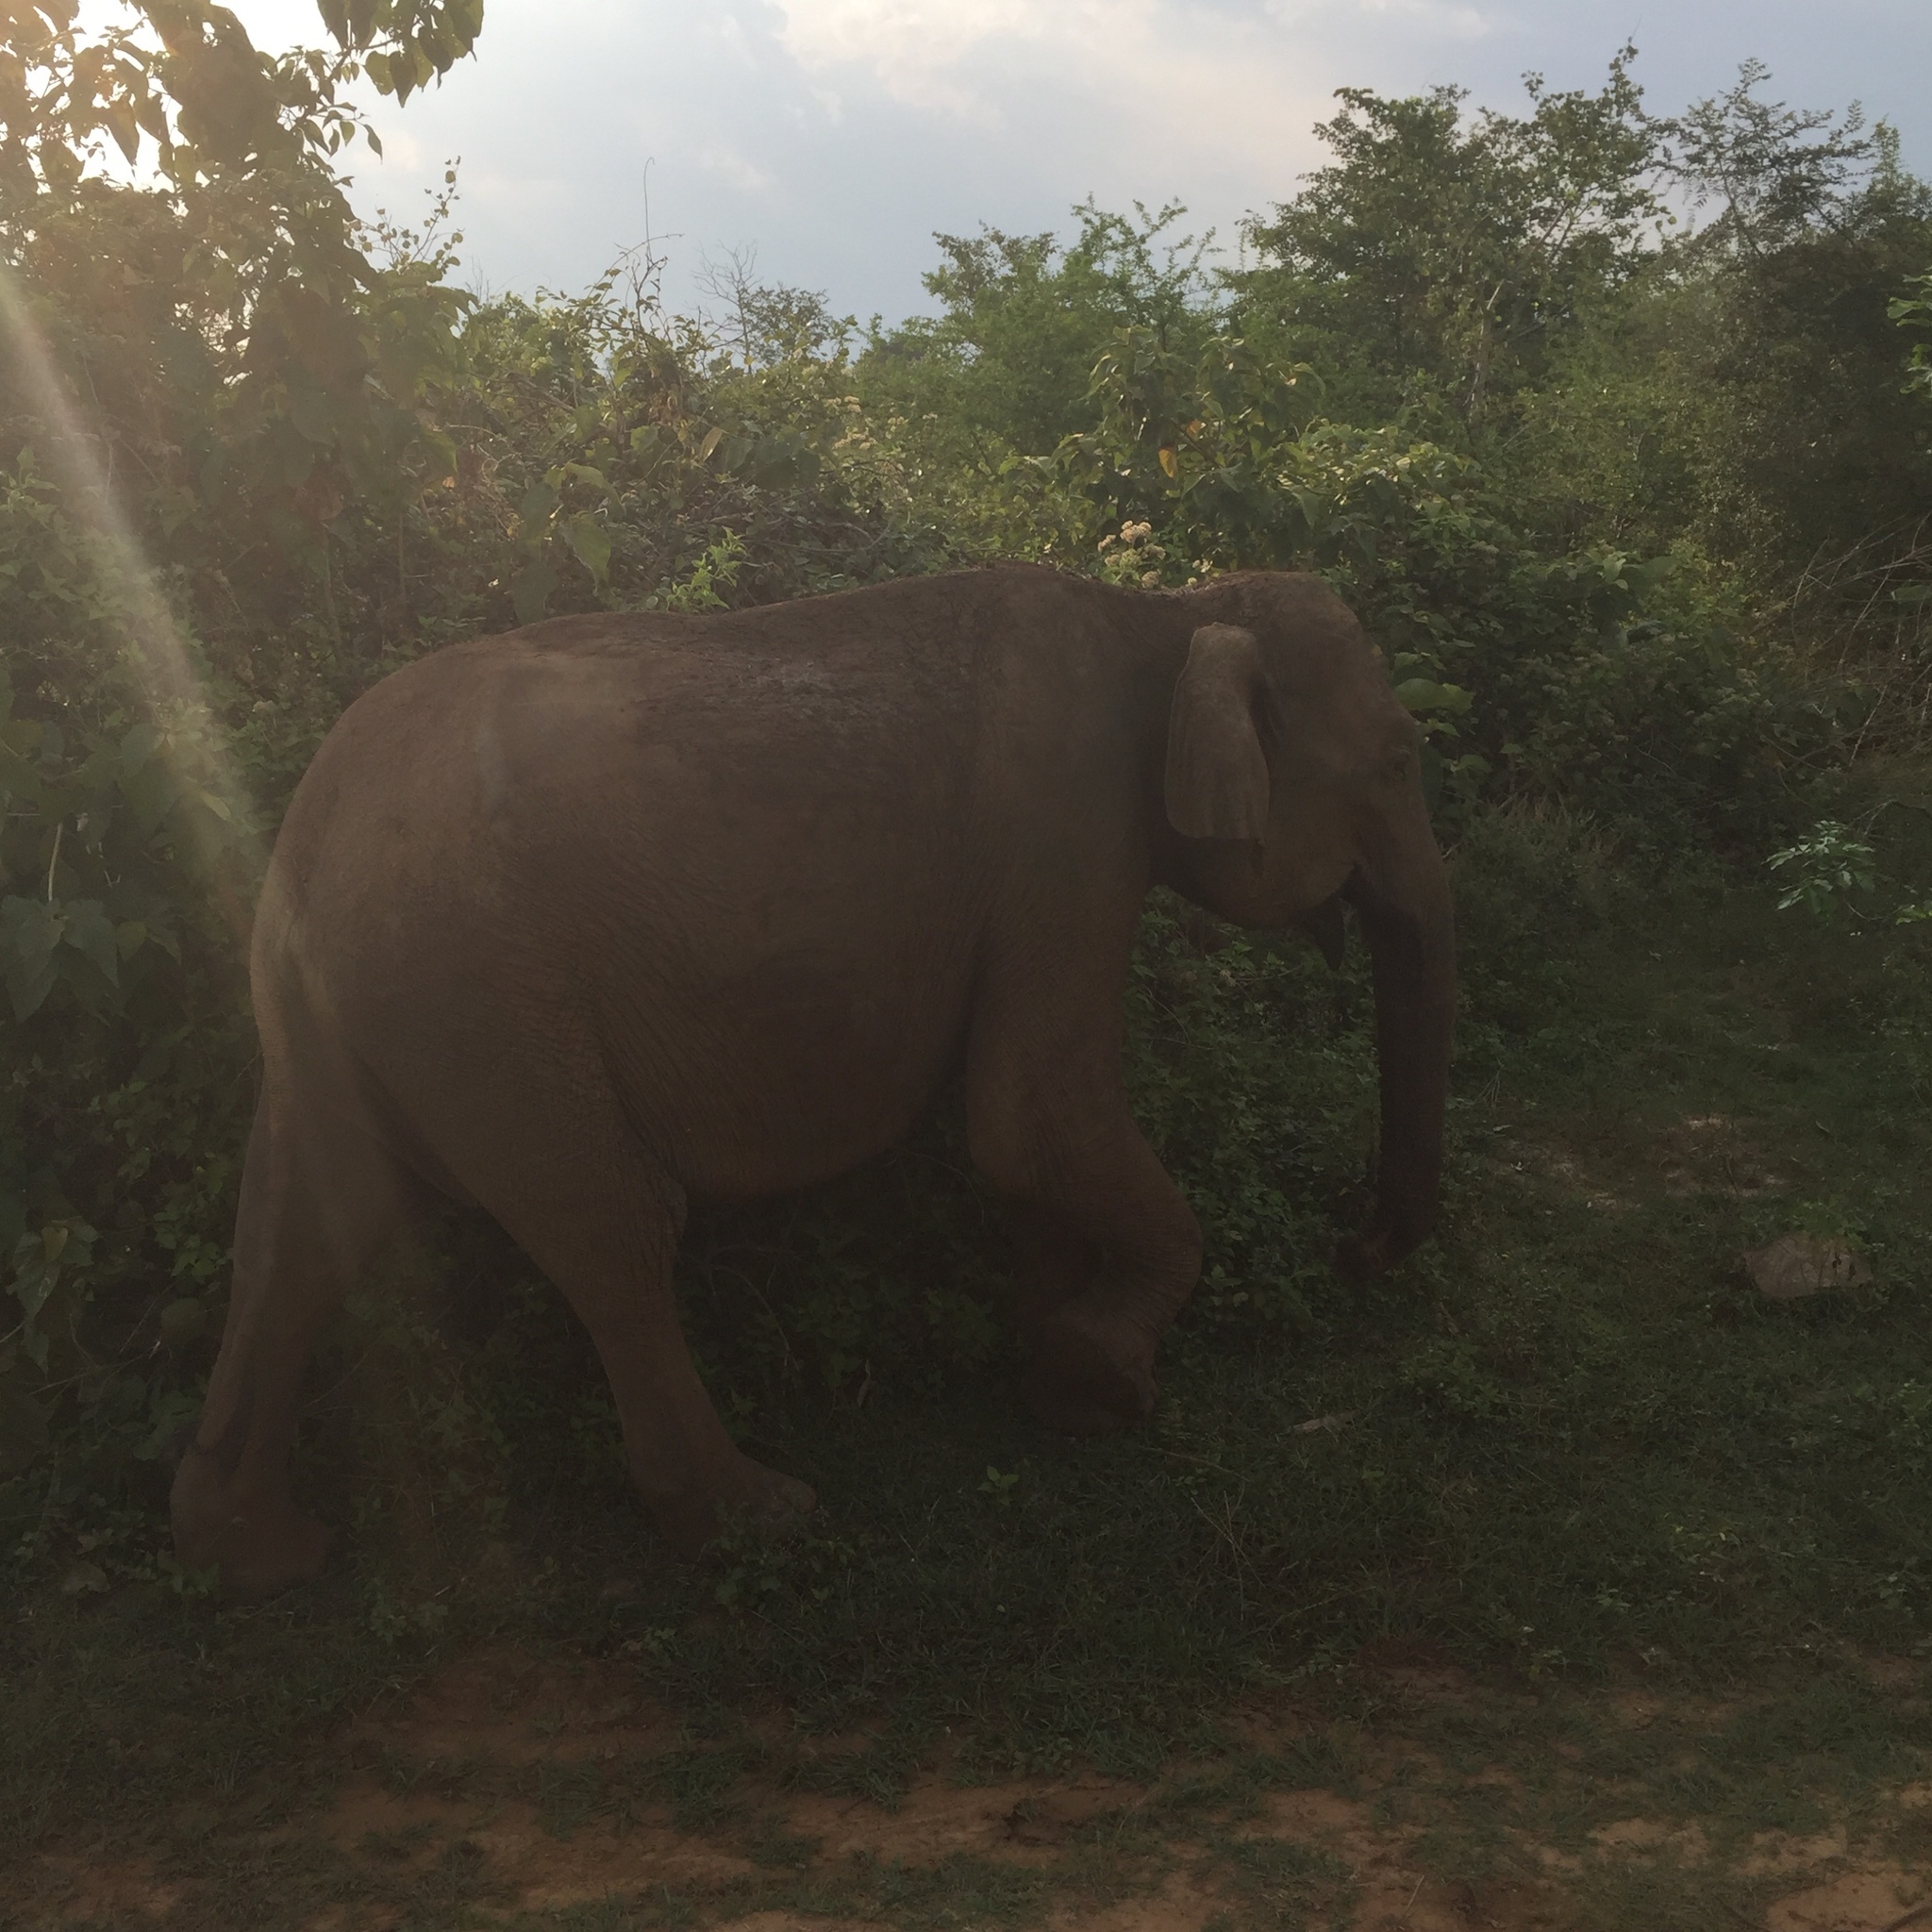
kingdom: Animalia
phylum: Chordata
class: Mammalia
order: Proboscidea
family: Elephantidae
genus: Elephas
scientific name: Elephas maximus
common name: Asian elephant
